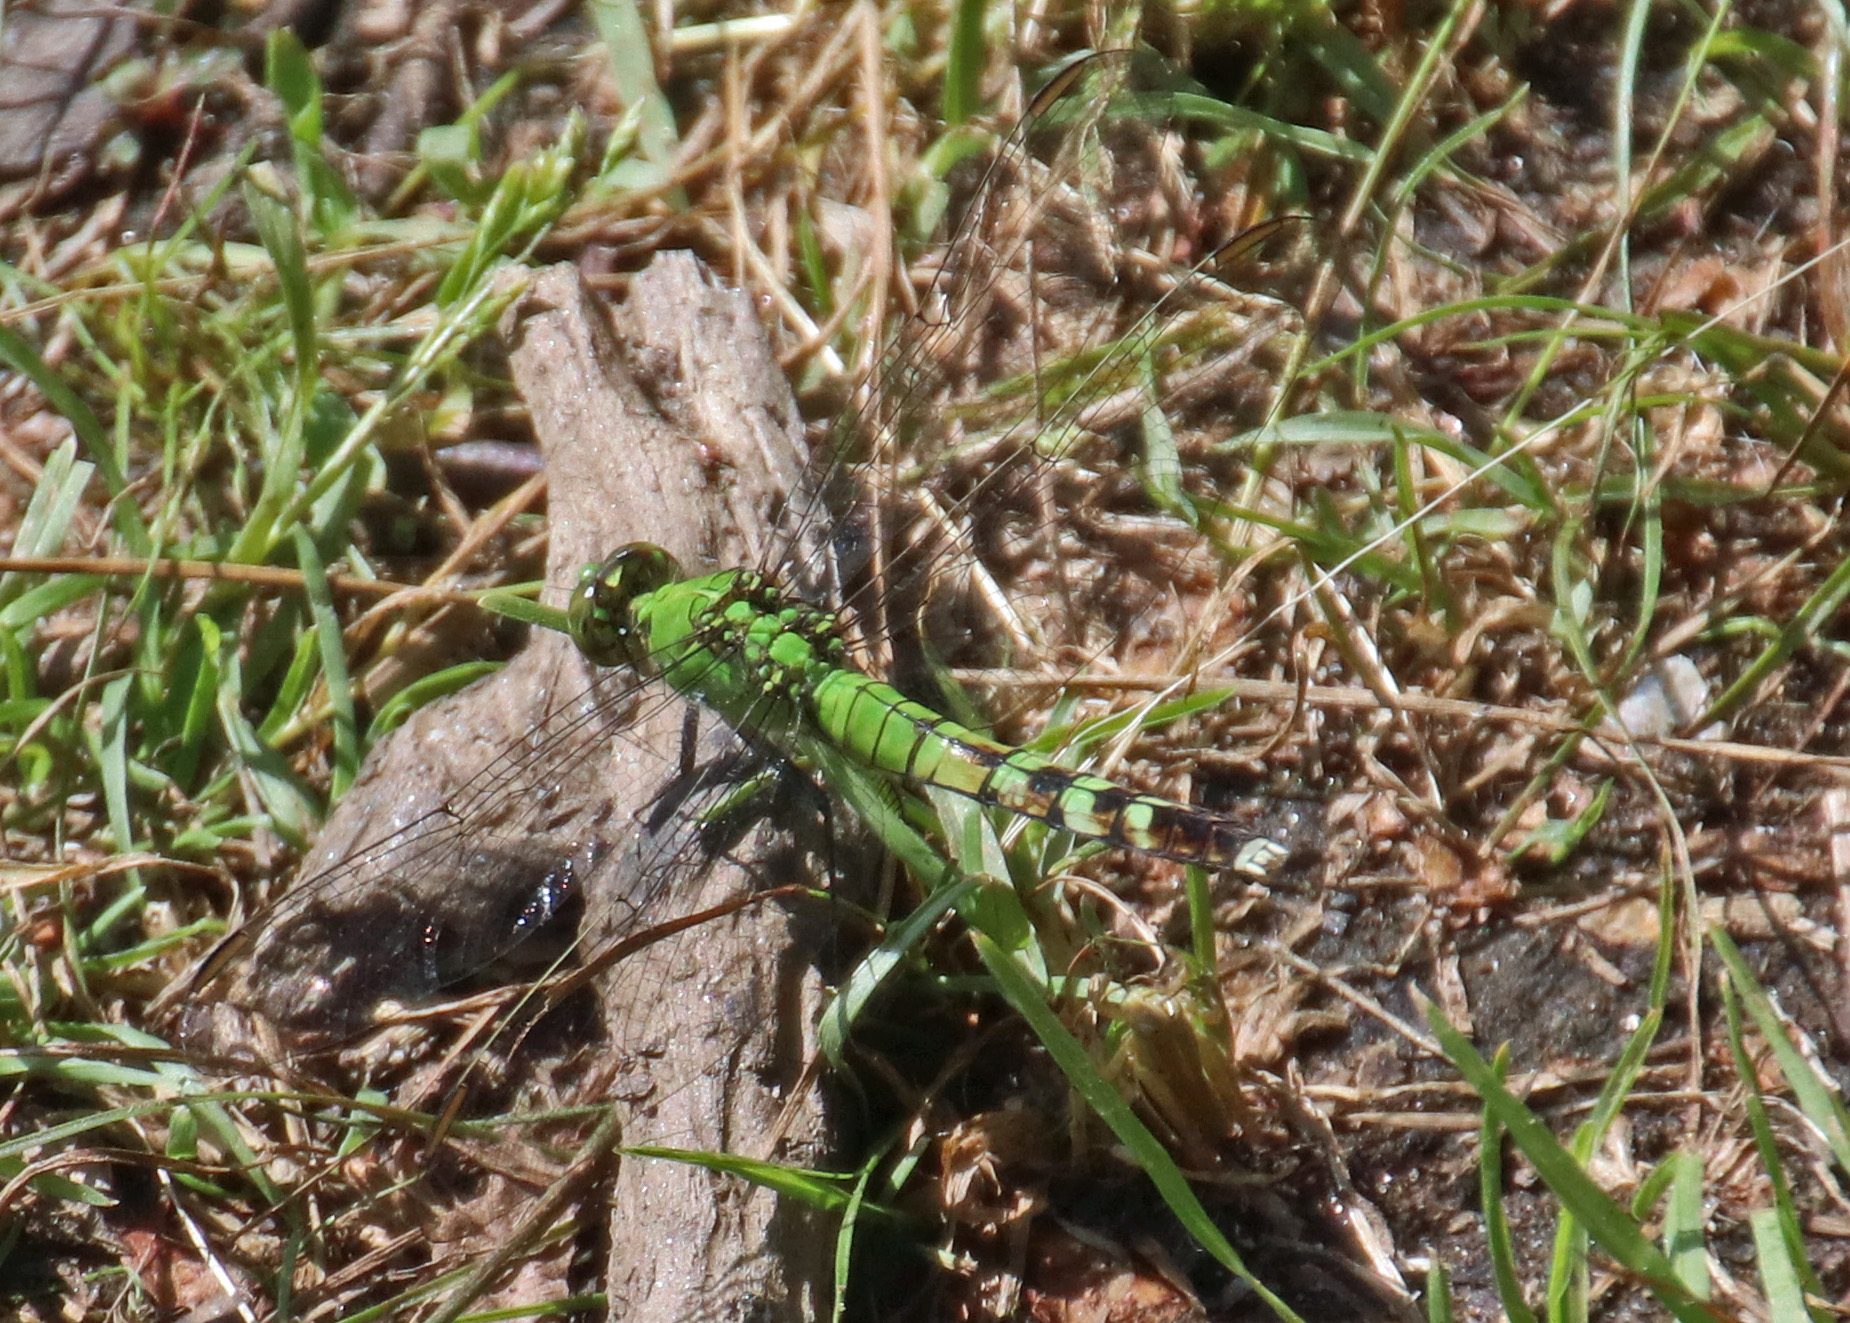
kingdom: Animalia
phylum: Arthropoda
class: Insecta
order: Odonata
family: Libellulidae
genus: Erythemis
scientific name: Erythemis simplicicollis
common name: Eastern pondhawk
